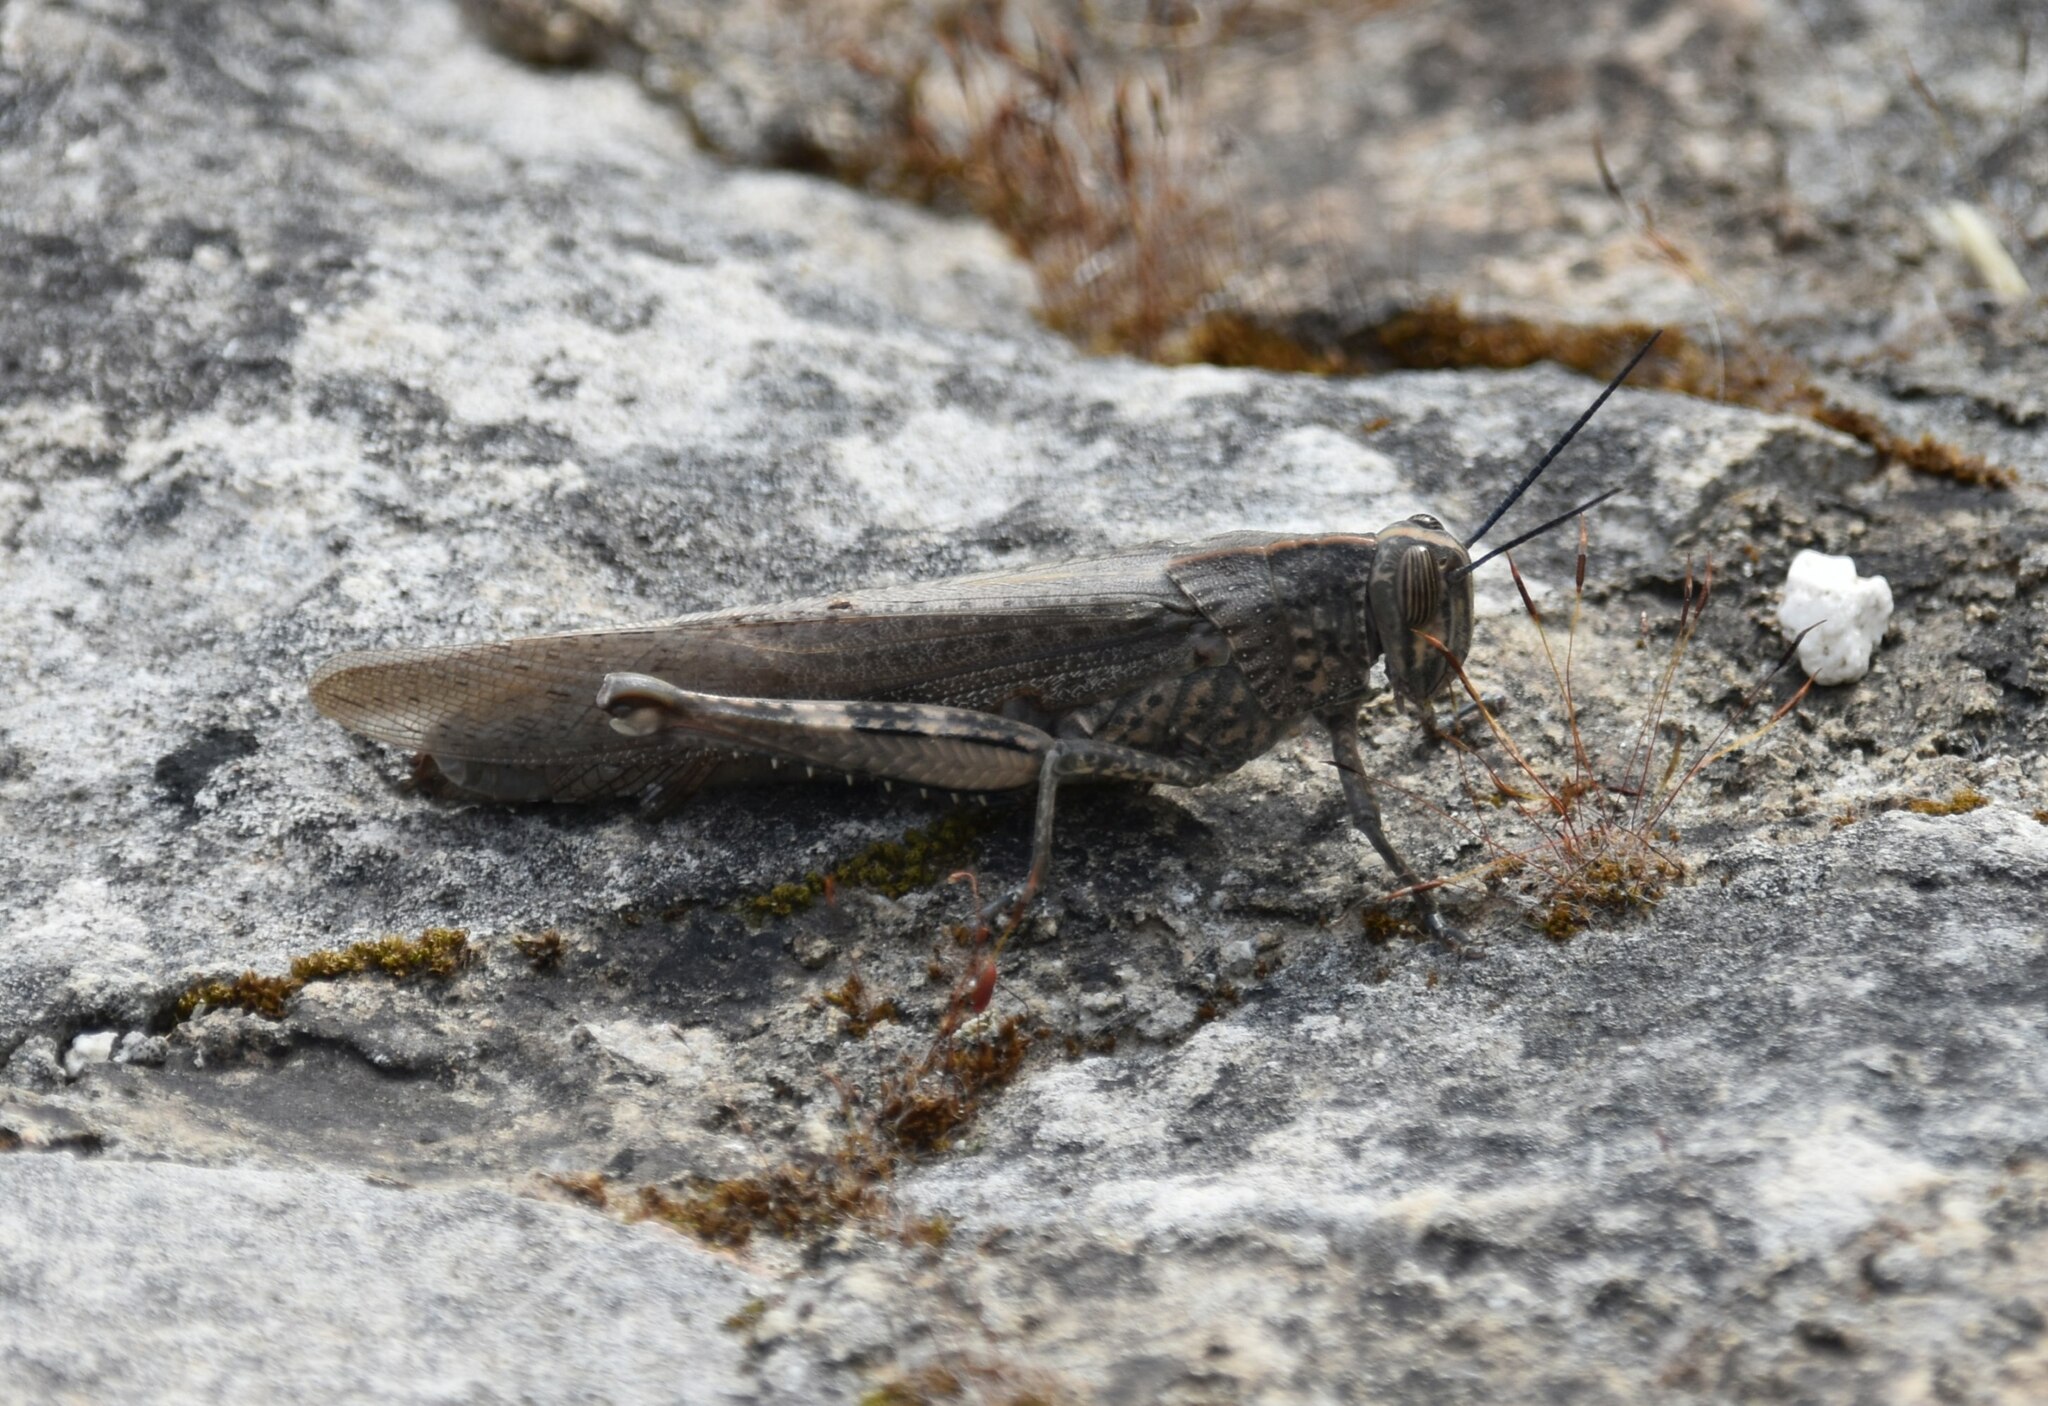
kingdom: Animalia
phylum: Arthropoda
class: Insecta
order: Orthoptera
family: Acrididae
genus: Anacridium
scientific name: Anacridium aegyptium
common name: Egyptian grasshopper
